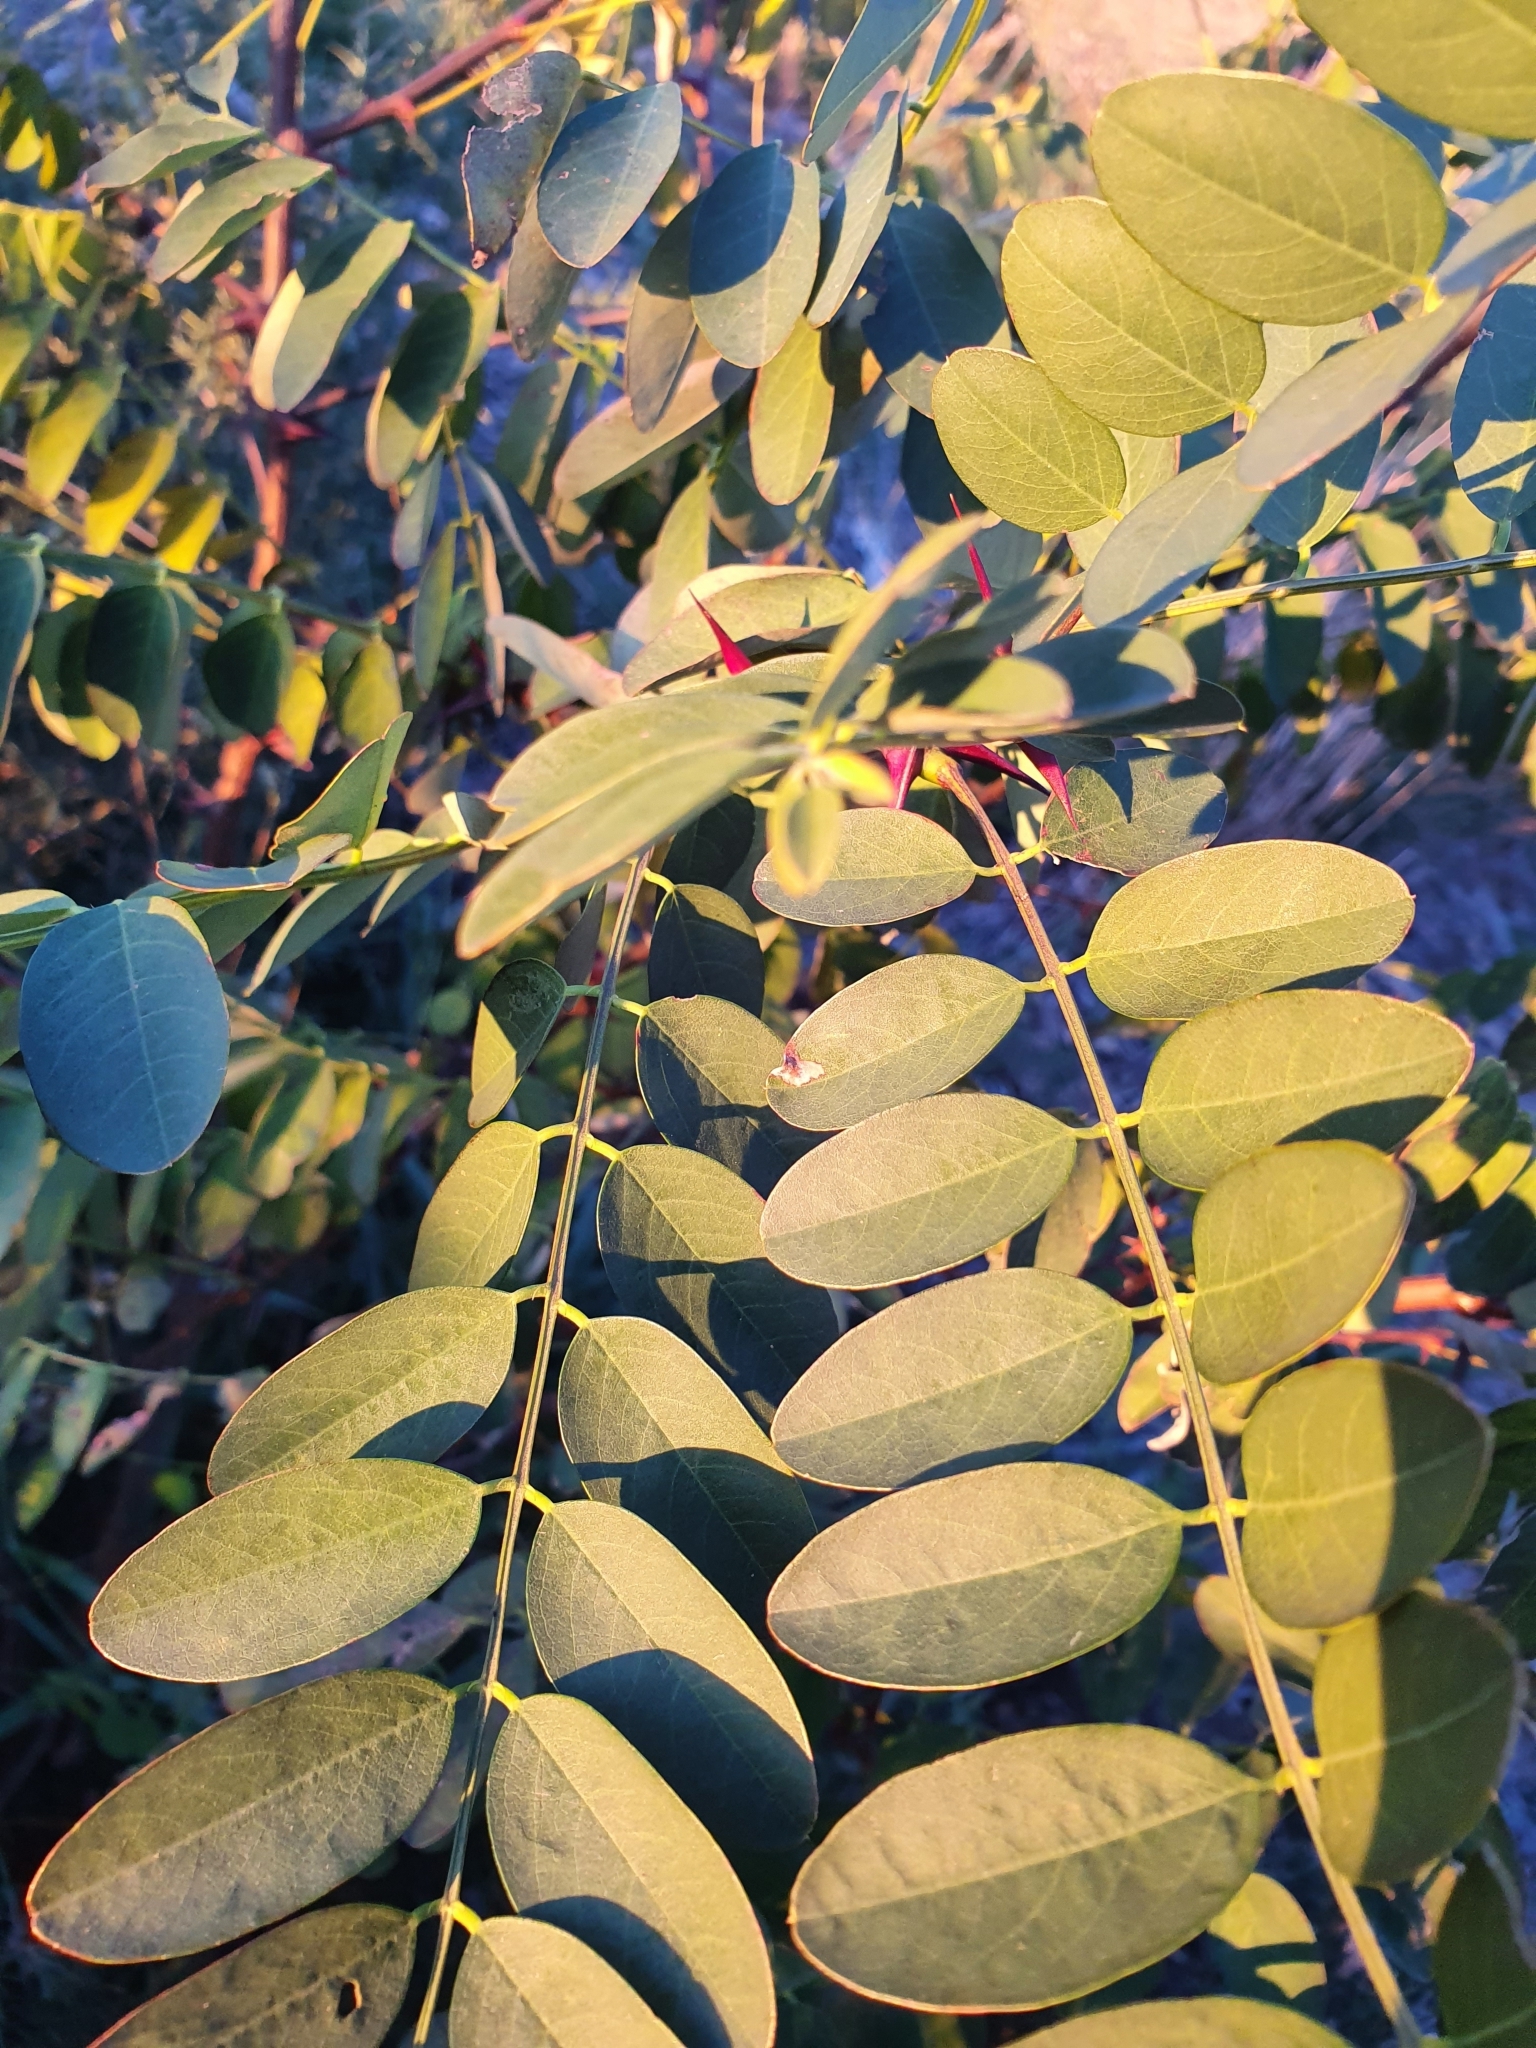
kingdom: Plantae
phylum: Tracheophyta
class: Magnoliopsida
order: Fabales
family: Fabaceae
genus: Robinia
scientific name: Robinia pseudoacacia
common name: Black locust
